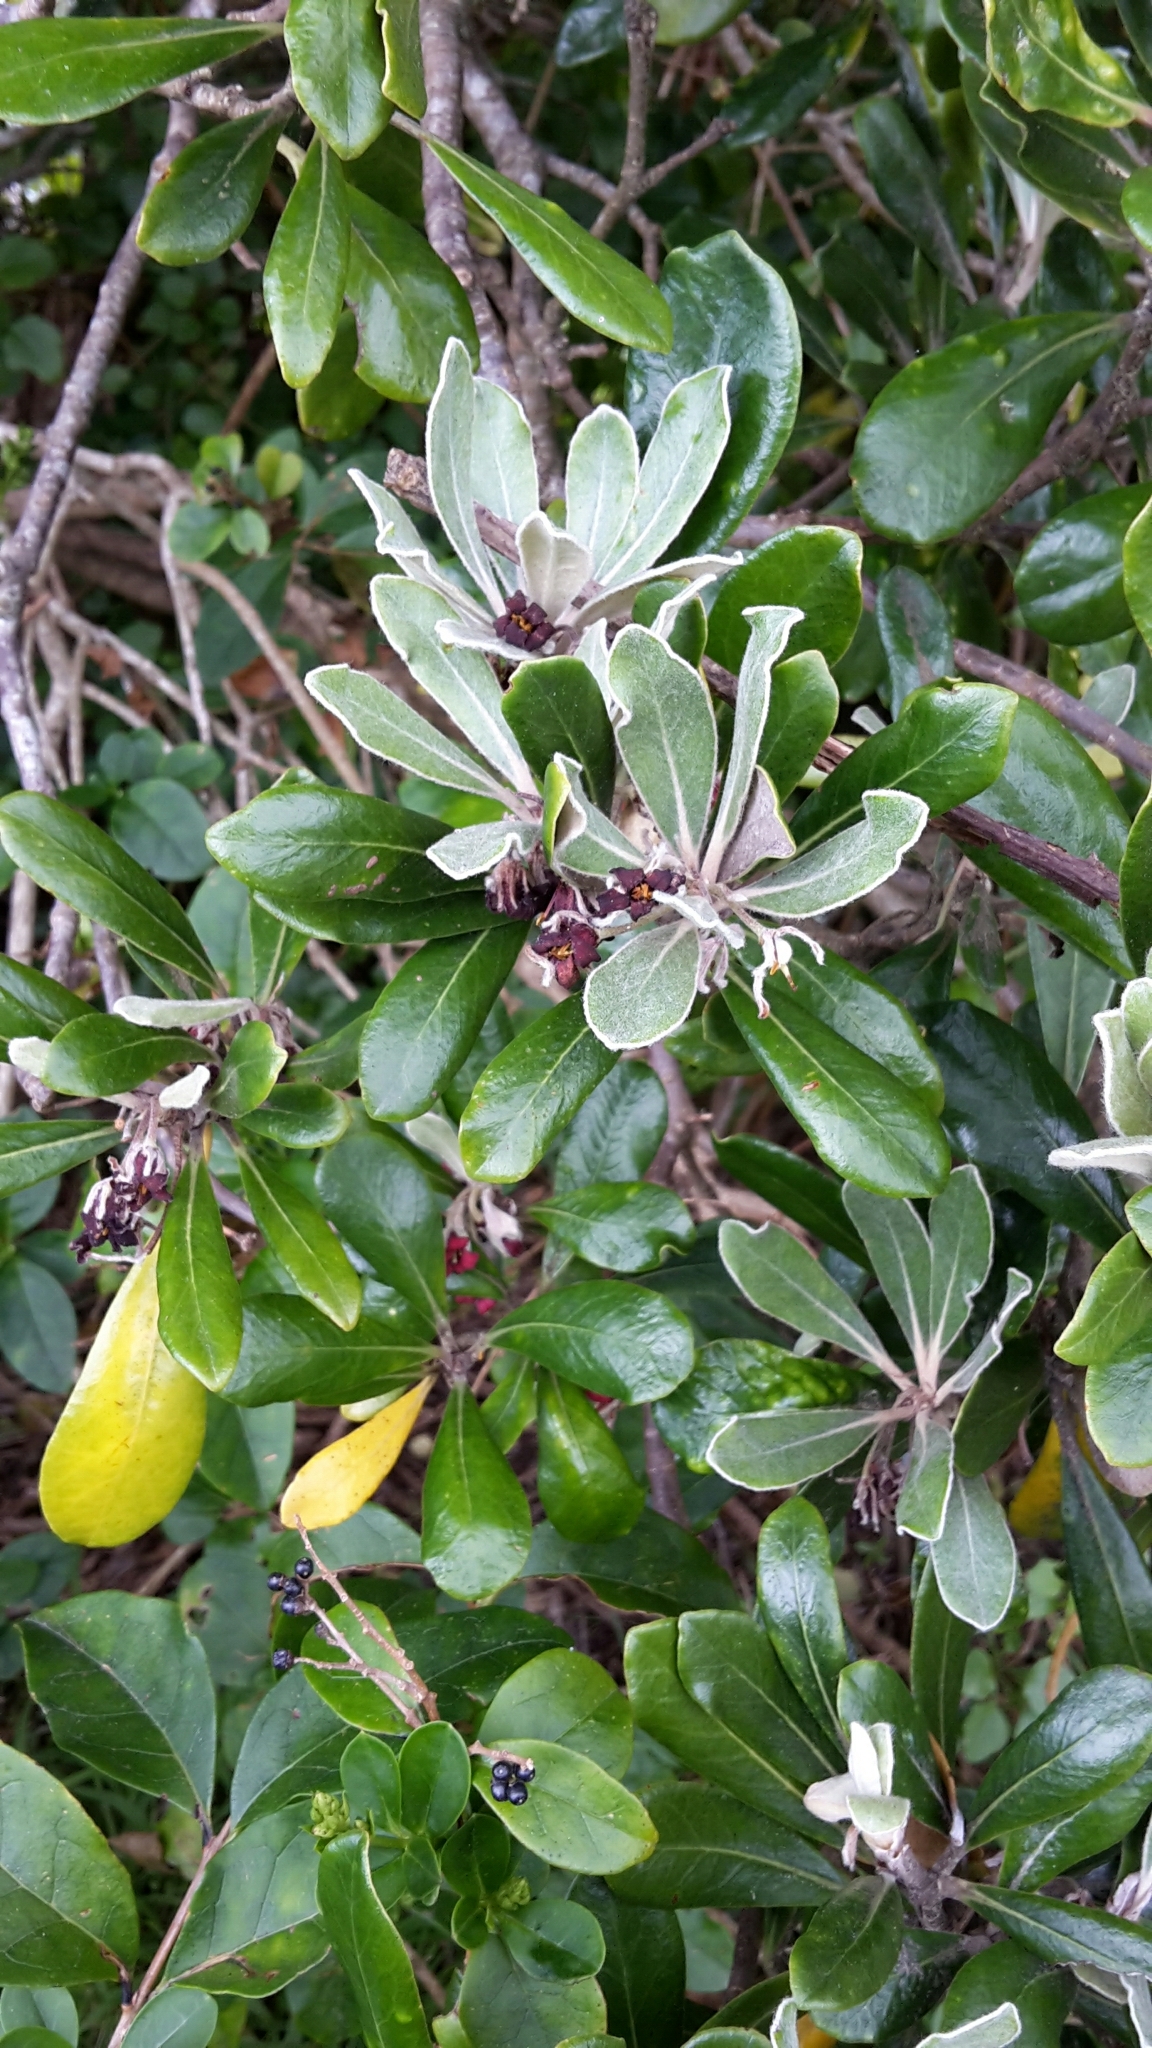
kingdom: Plantae
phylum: Tracheophyta
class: Magnoliopsida
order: Apiales
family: Pittosporaceae
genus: Pittosporum
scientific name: Pittosporum crassifolium
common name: Karo
